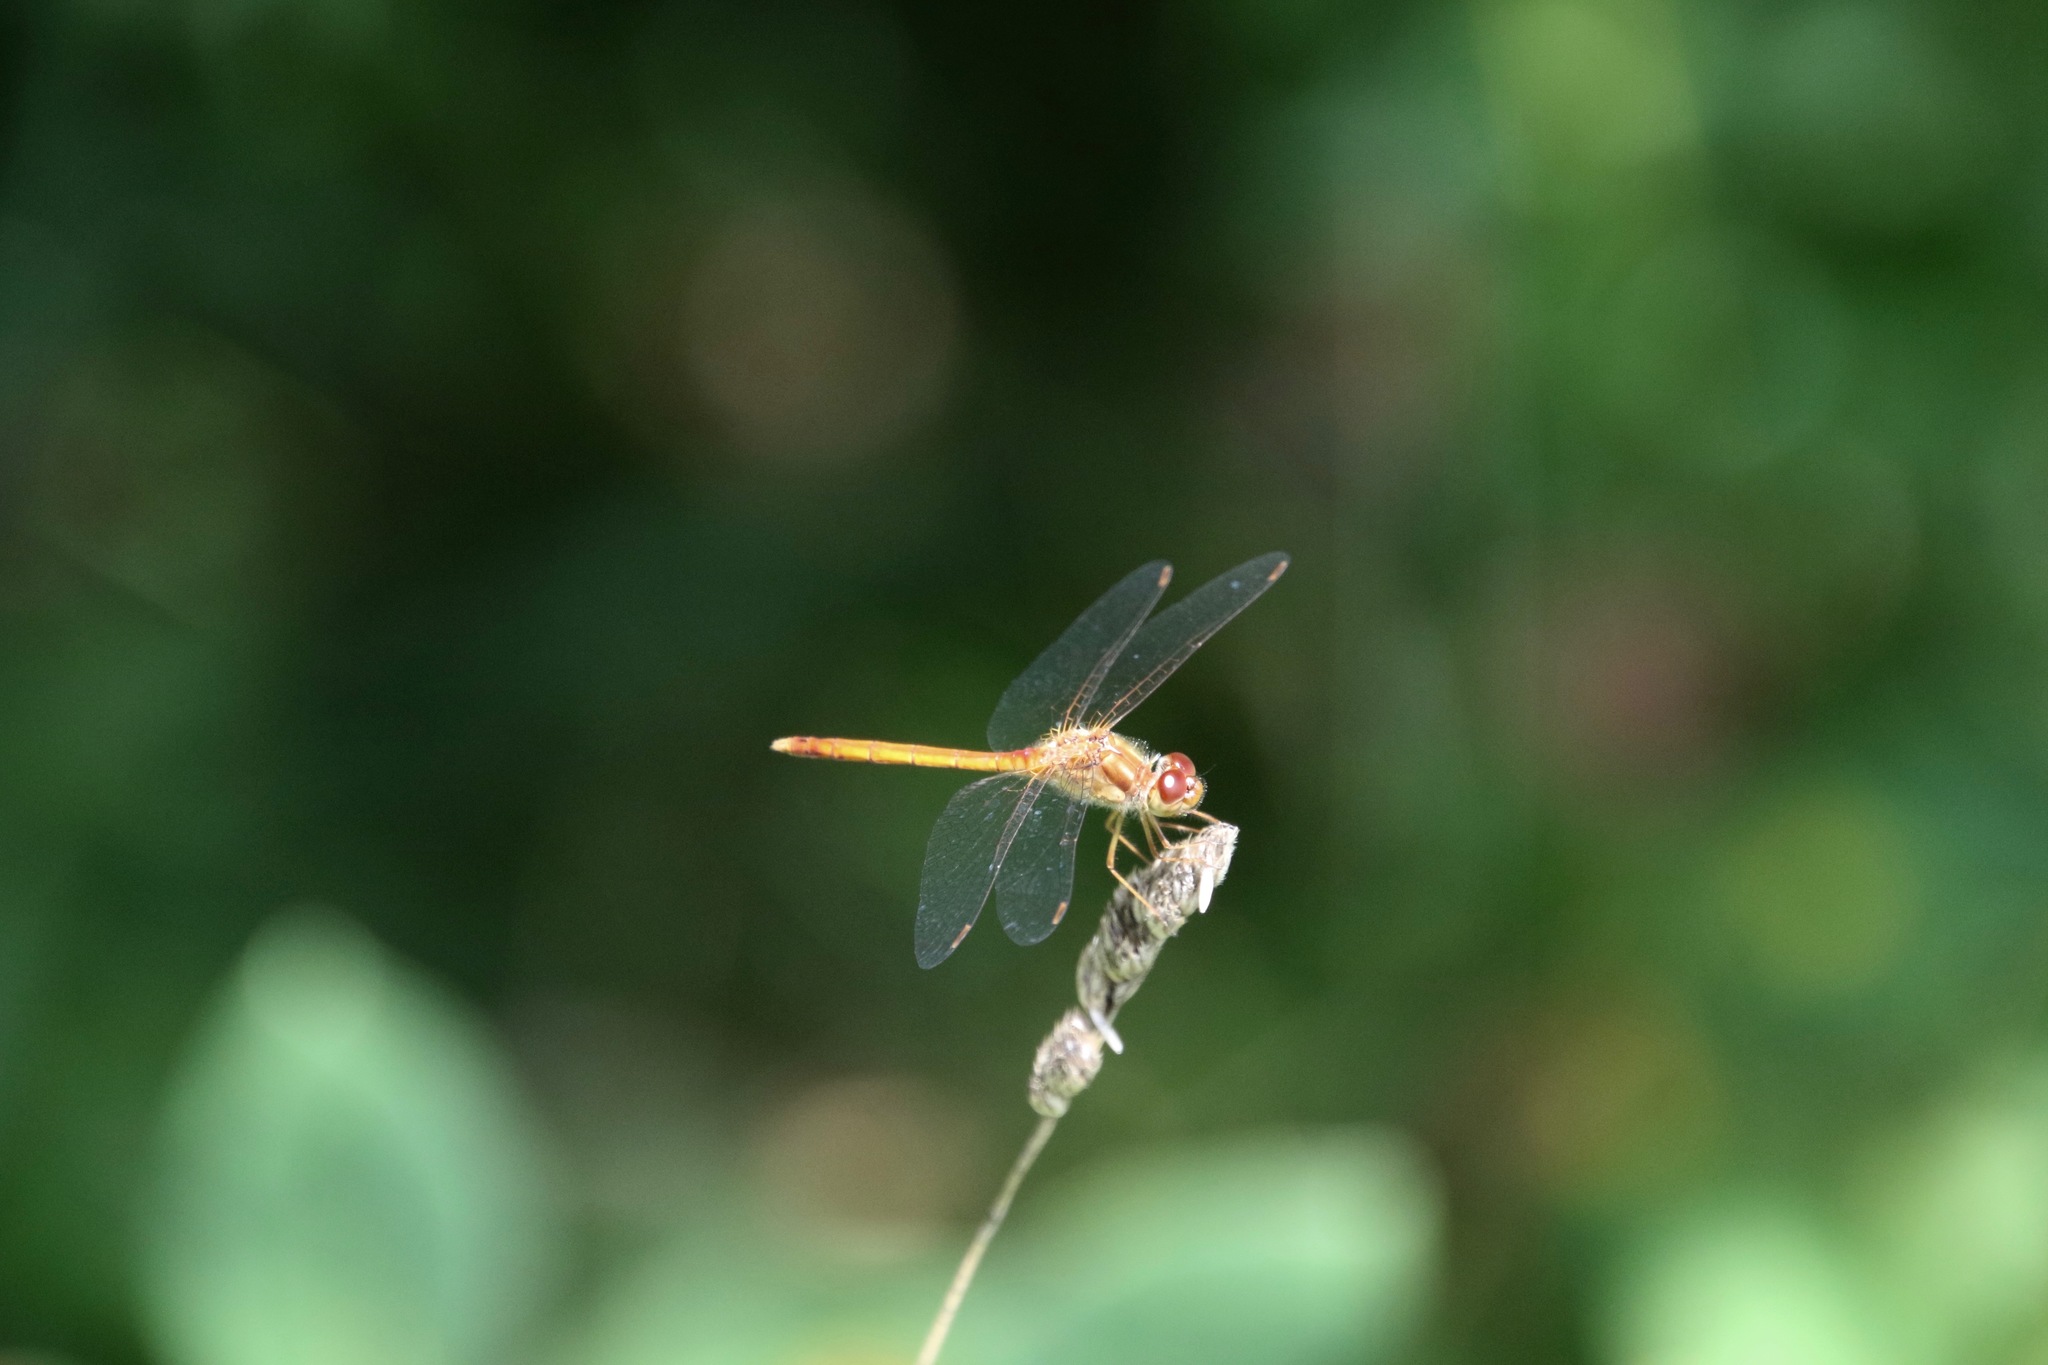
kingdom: Animalia
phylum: Arthropoda
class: Insecta
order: Odonata
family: Libellulidae
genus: Sympetrum
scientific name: Sympetrum vicinum
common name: Autumn meadowhawk
